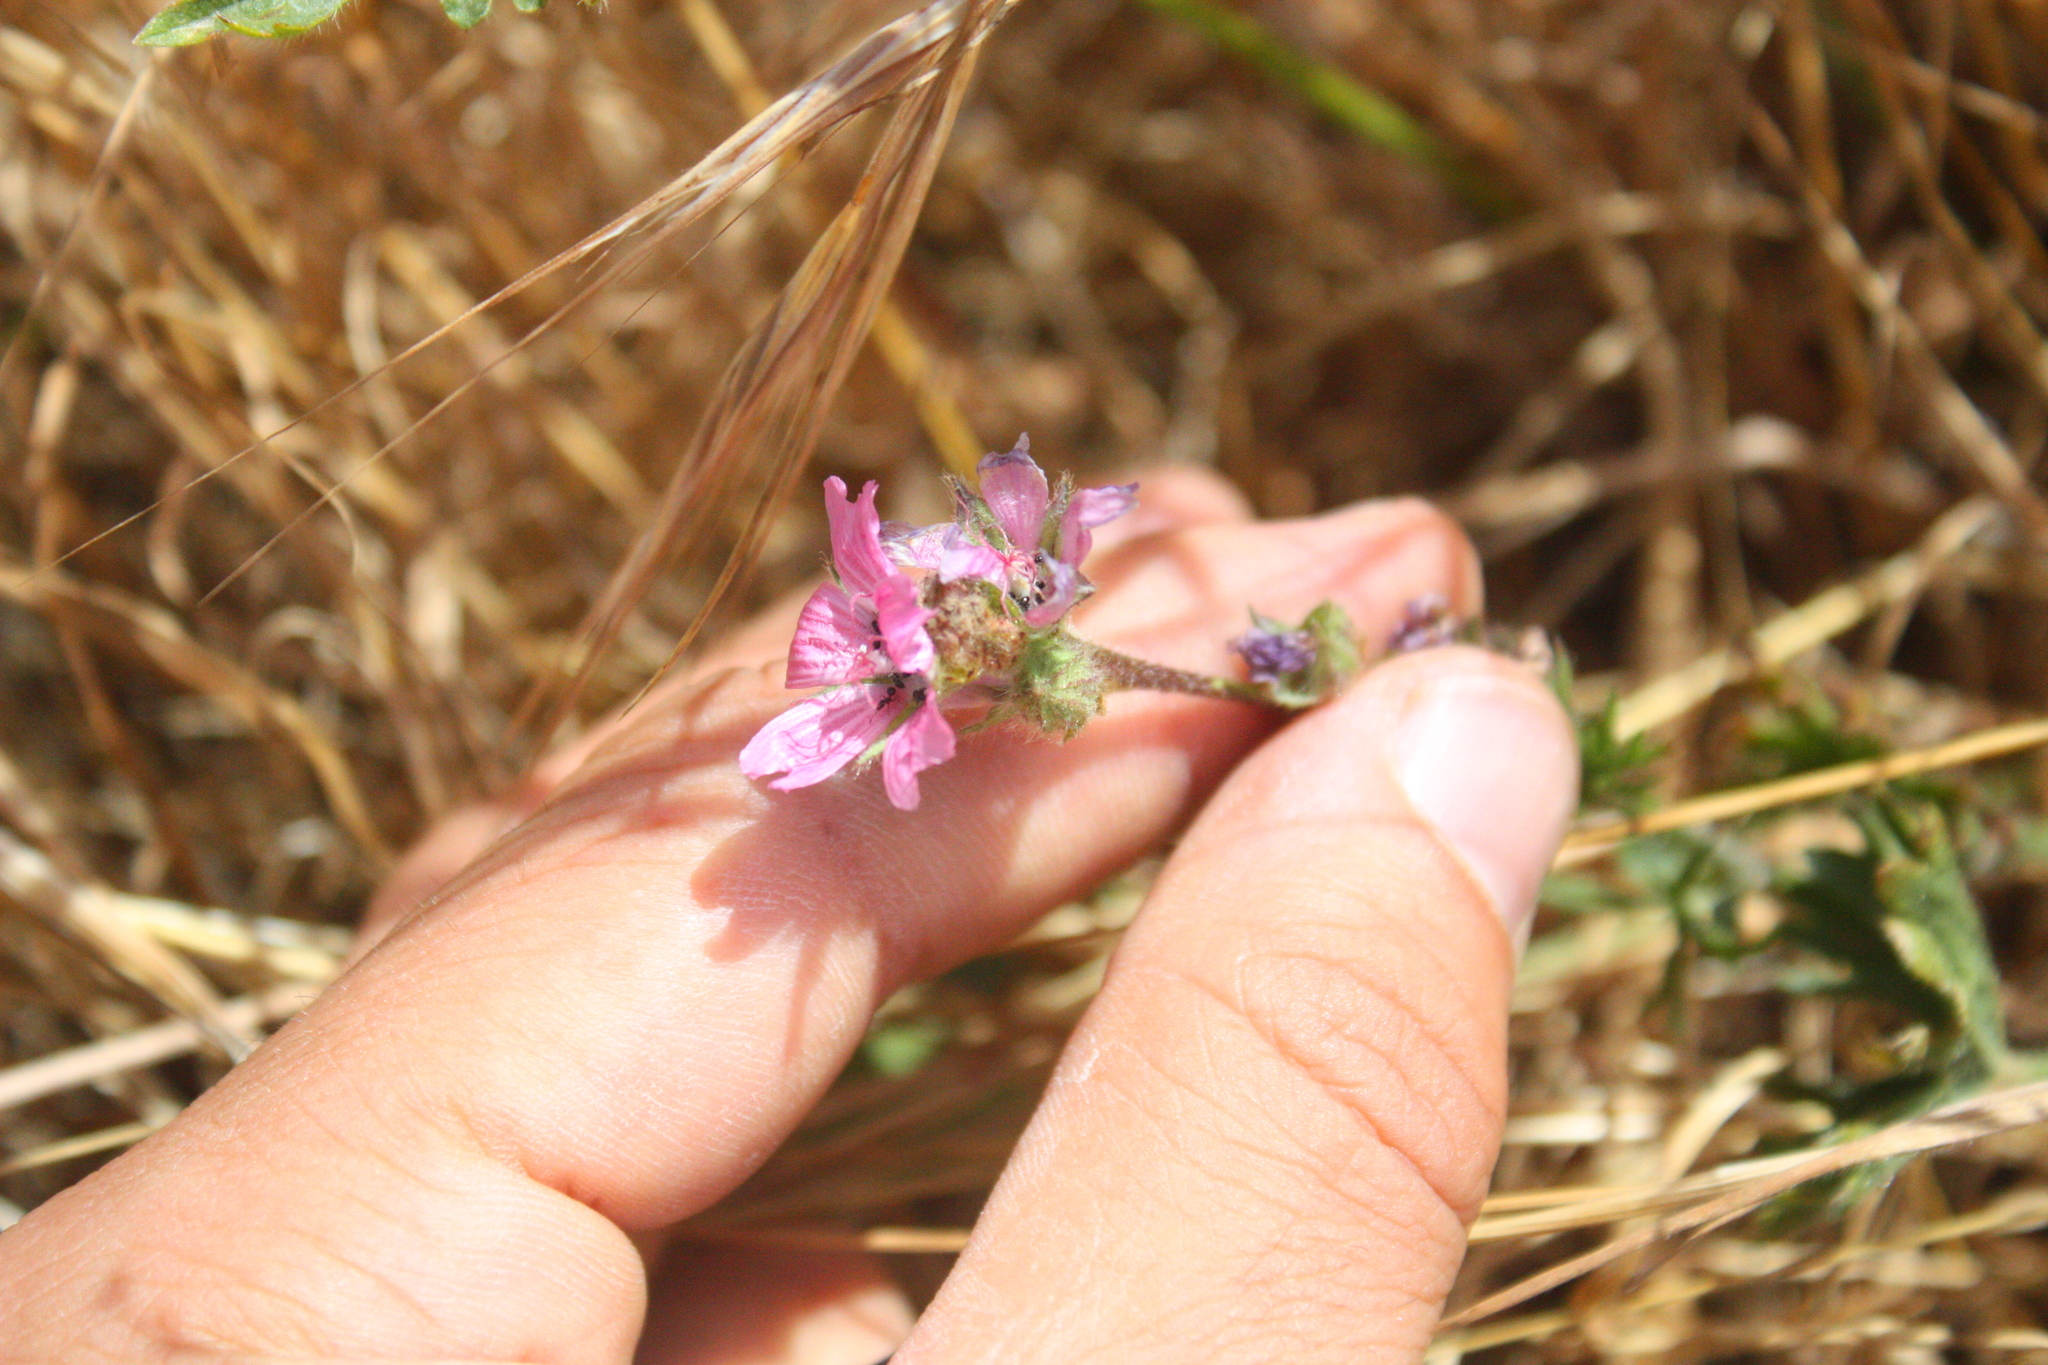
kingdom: Plantae
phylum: Tracheophyta
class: Magnoliopsida
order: Malvales
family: Malvaceae
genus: Sidalcea
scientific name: Sidalcea malviflora
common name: Greek mallow
